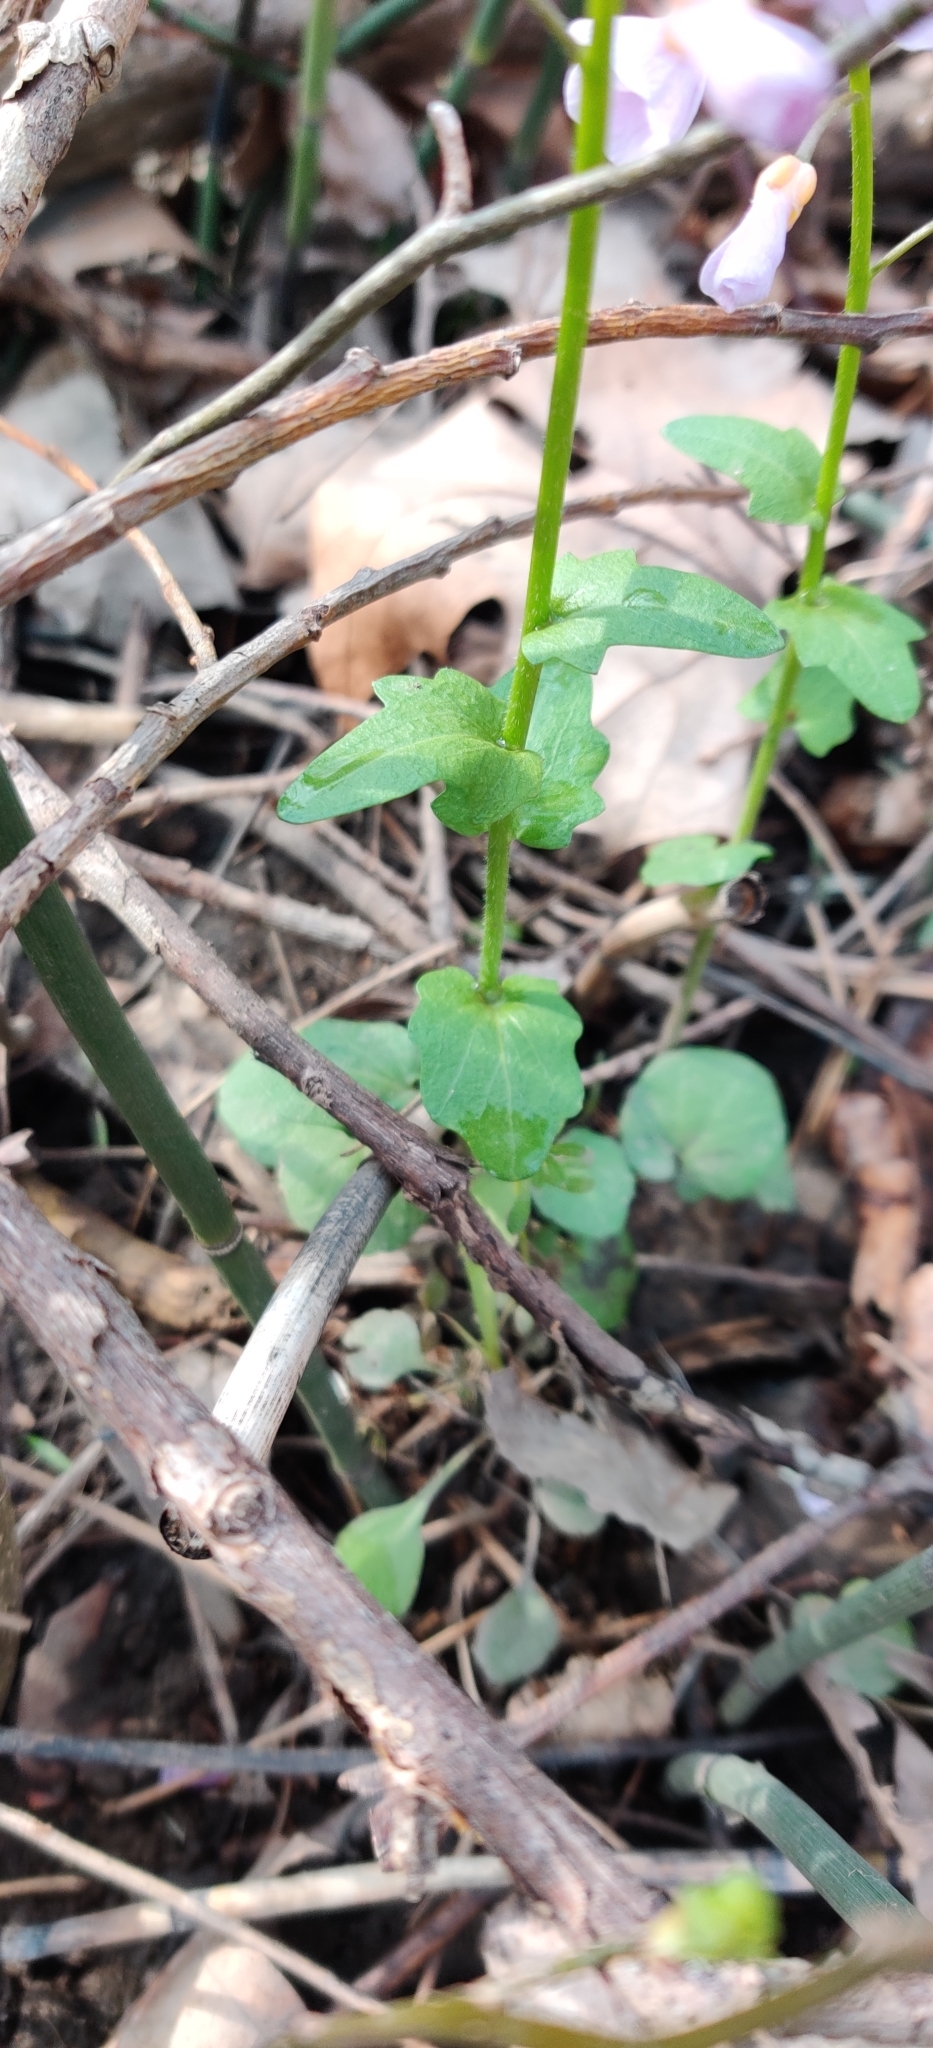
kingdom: Plantae
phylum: Tracheophyta
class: Magnoliopsida
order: Brassicales
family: Brassicaceae
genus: Cardamine
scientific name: Cardamine douglassii
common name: Purple cress
